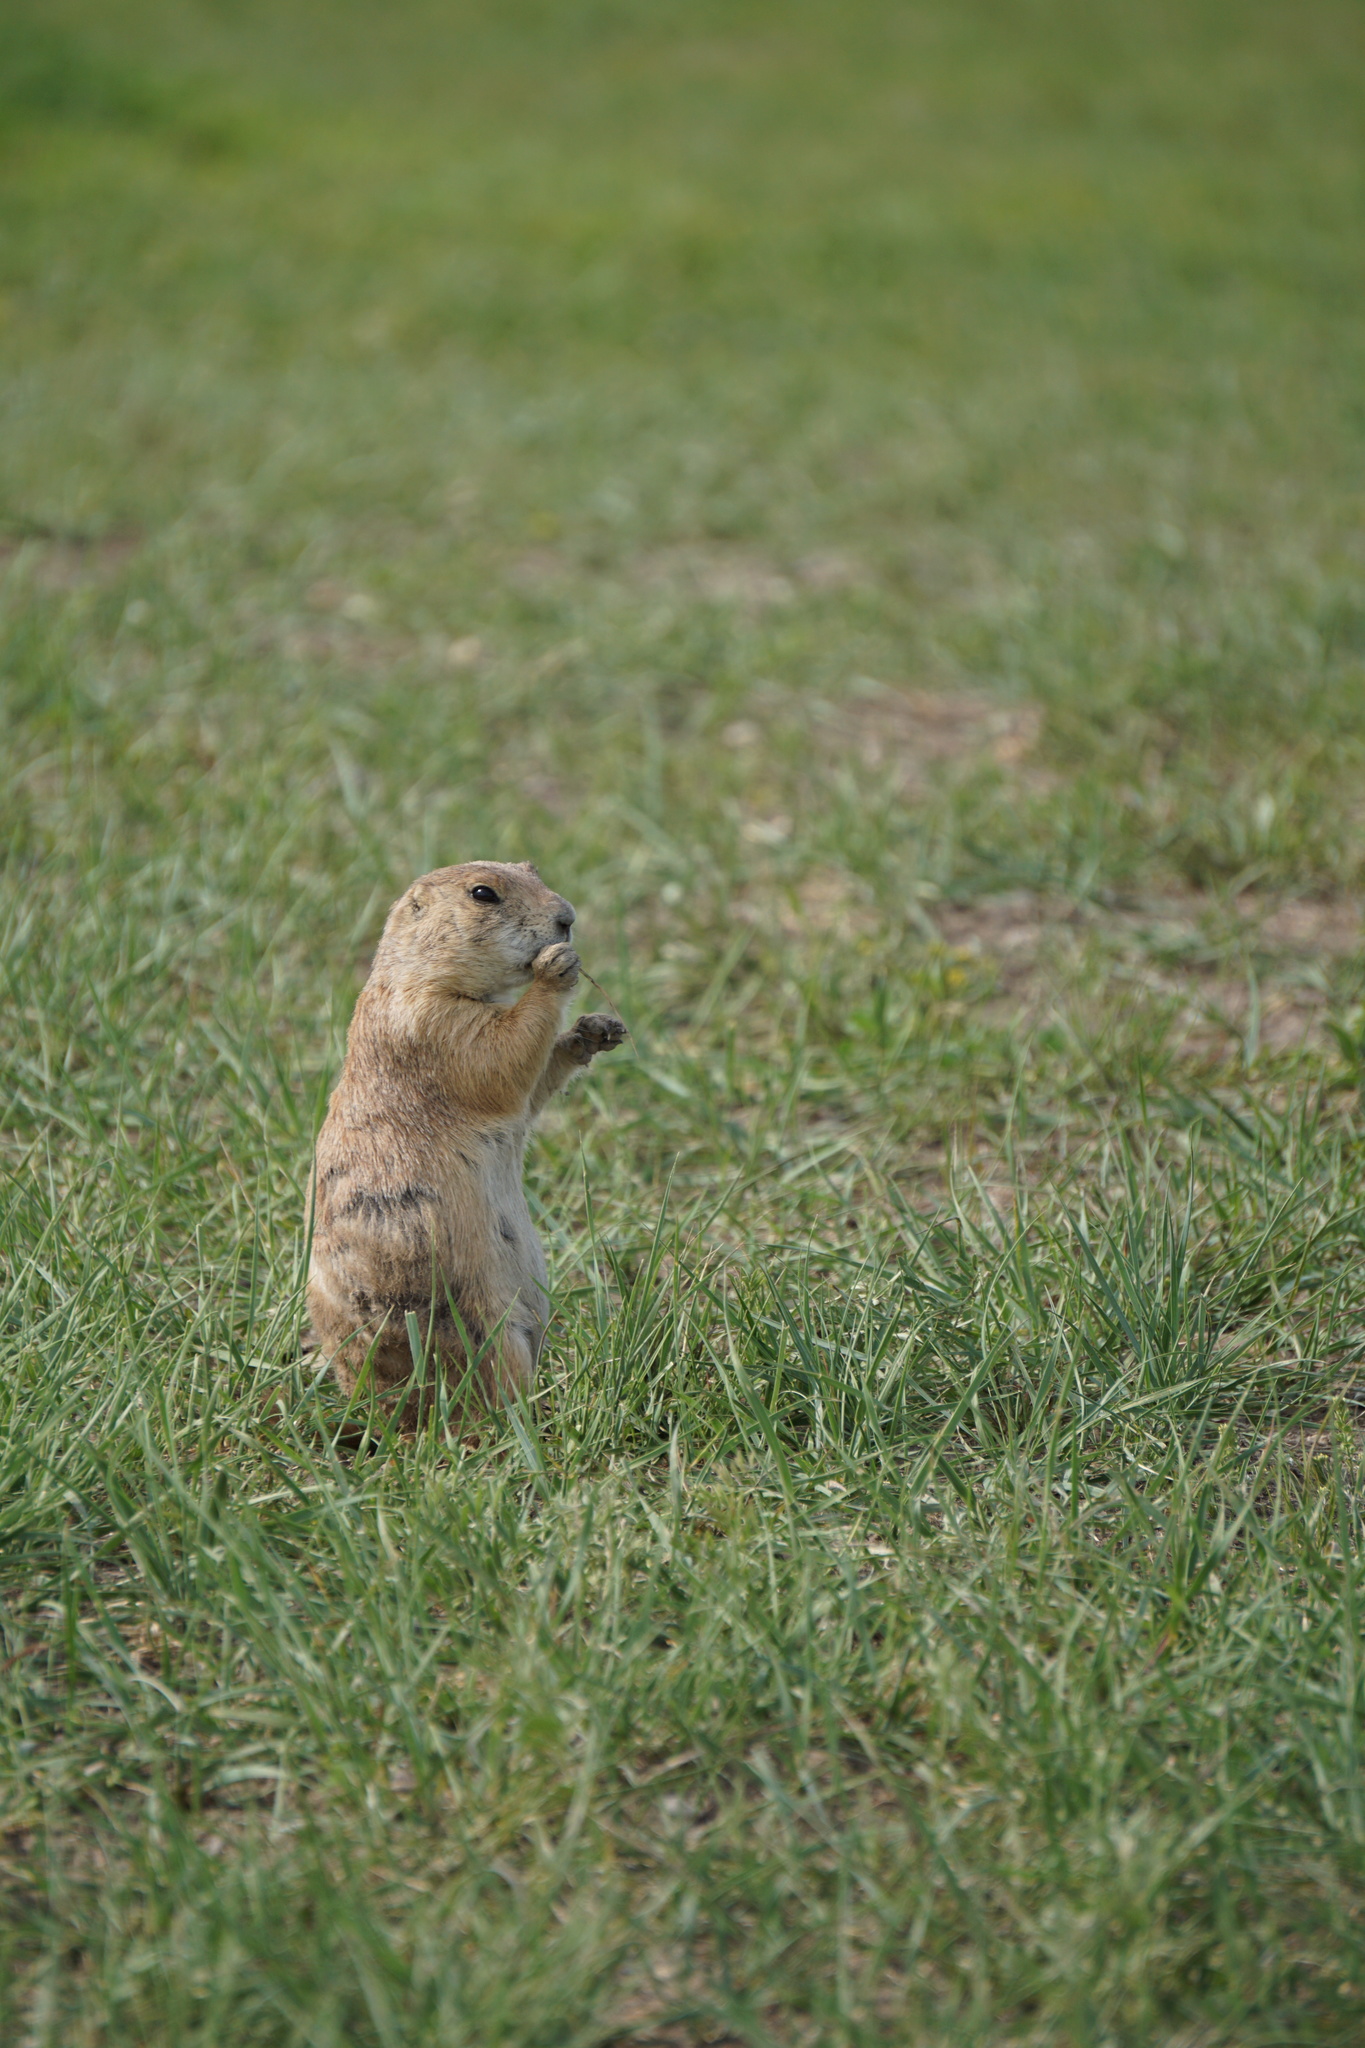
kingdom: Animalia
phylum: Chordata
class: Mammalia
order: Rodentia
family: Sciuridae
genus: Cynomys
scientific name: Cynomys ludovicianus
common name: Black-tailed prairie dog
